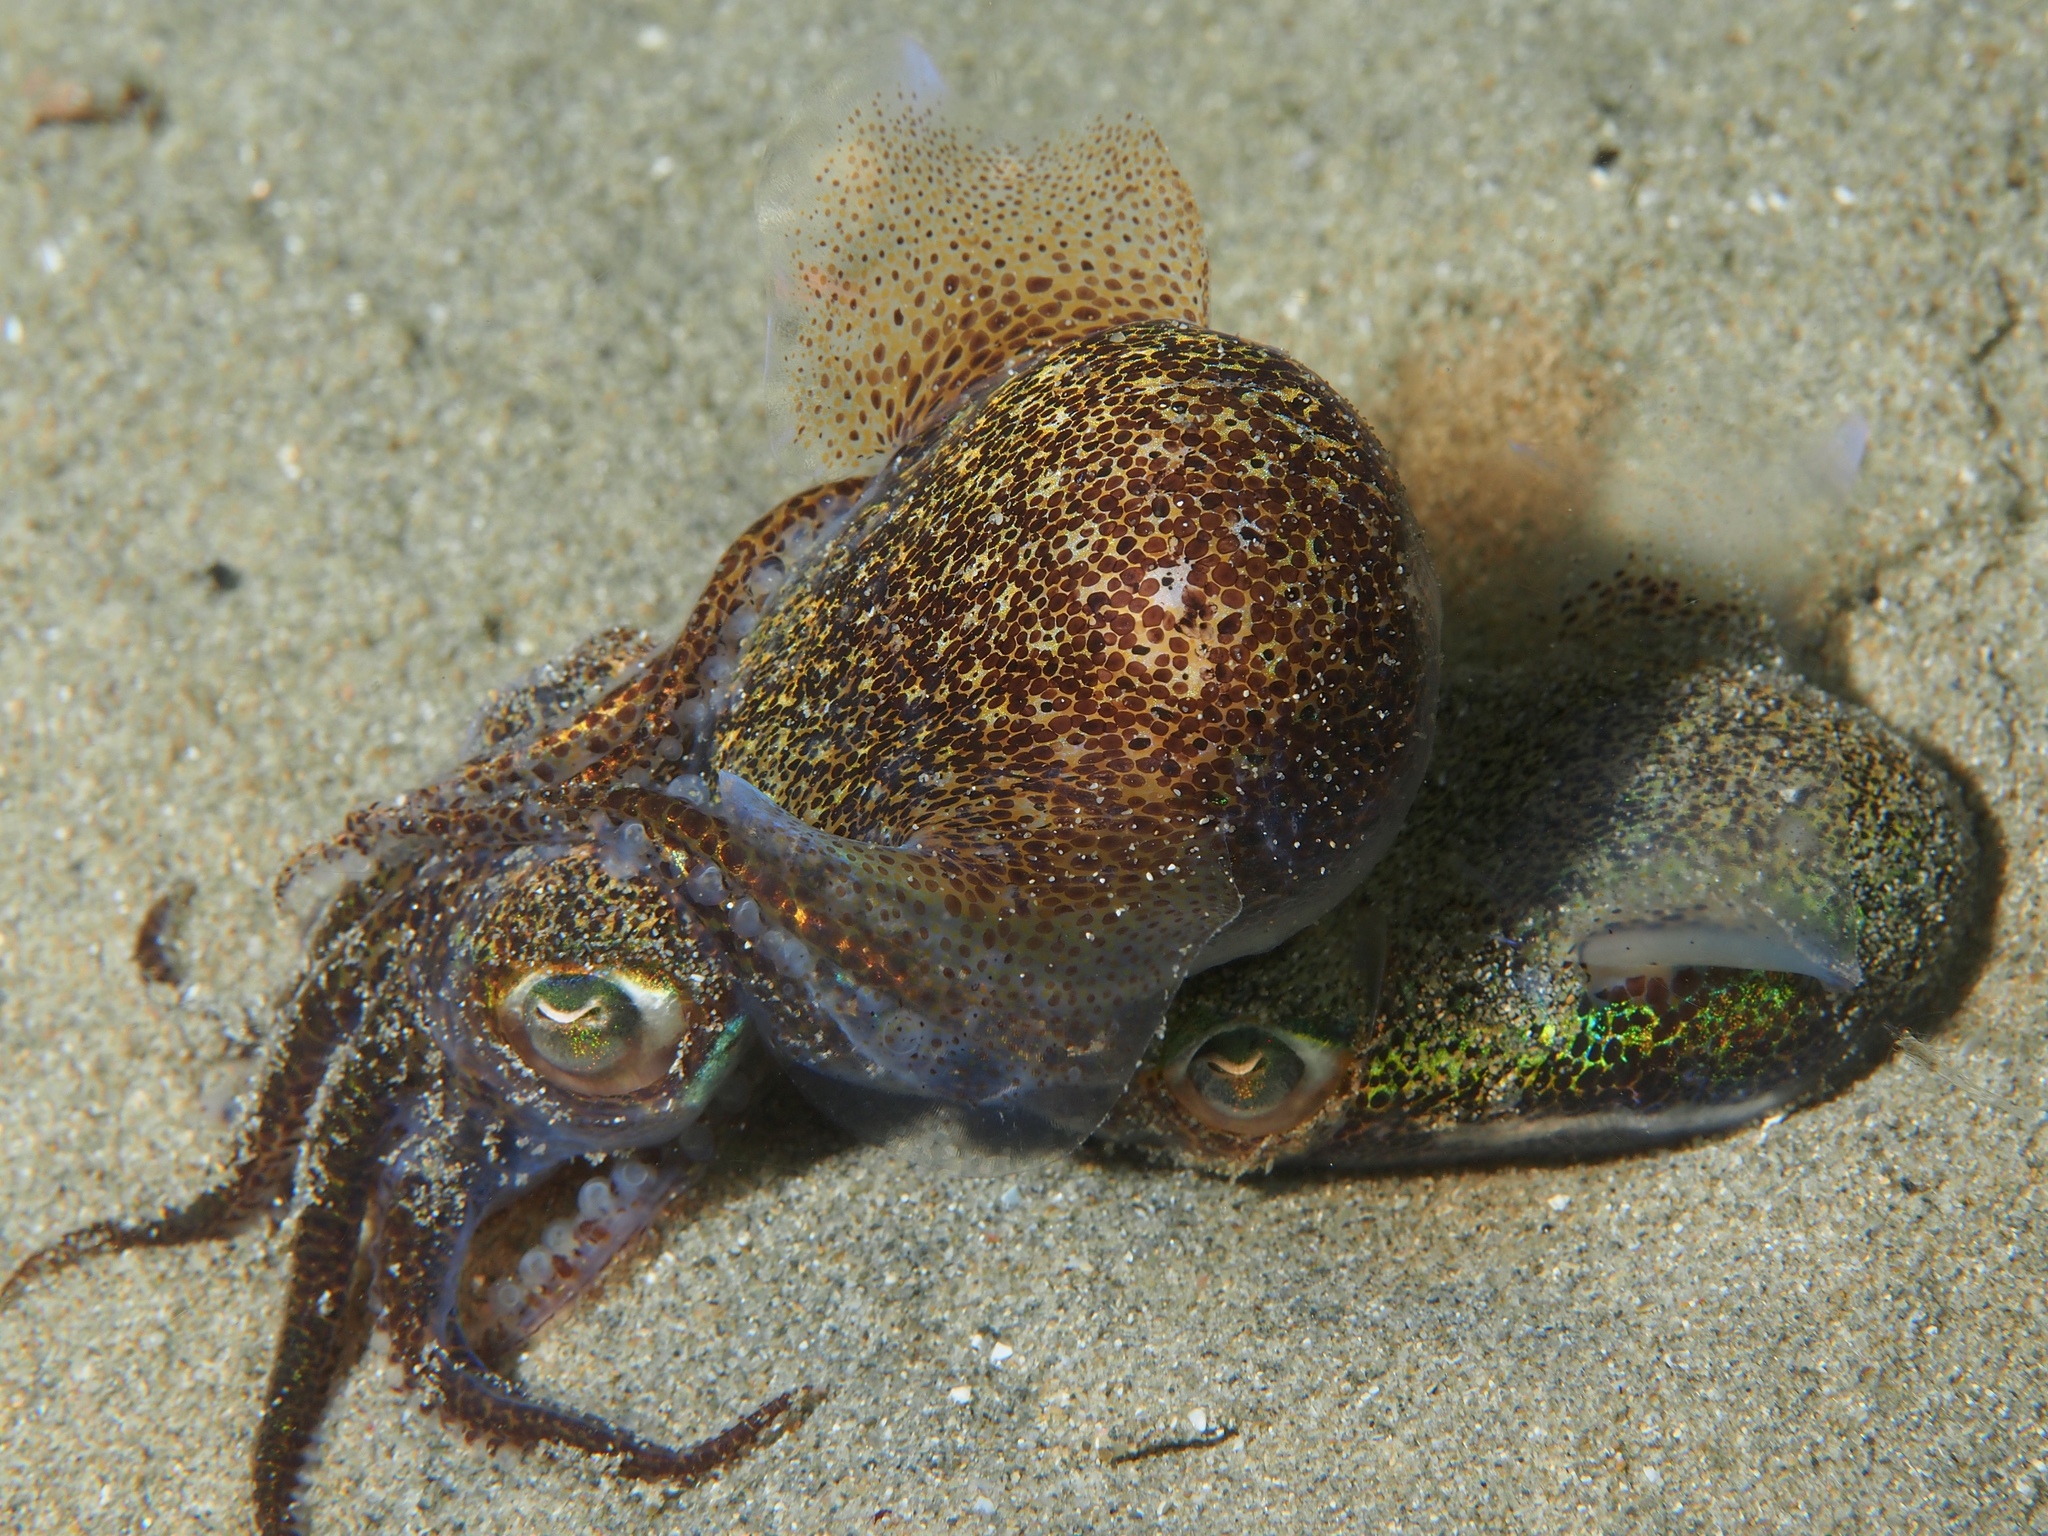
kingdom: Animalia
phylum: Mollusca
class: Cephalopoda
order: Sepiida
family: Sepiolidae
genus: Euprymna
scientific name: Euprymna tasmanica
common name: Southern bobtail squid
